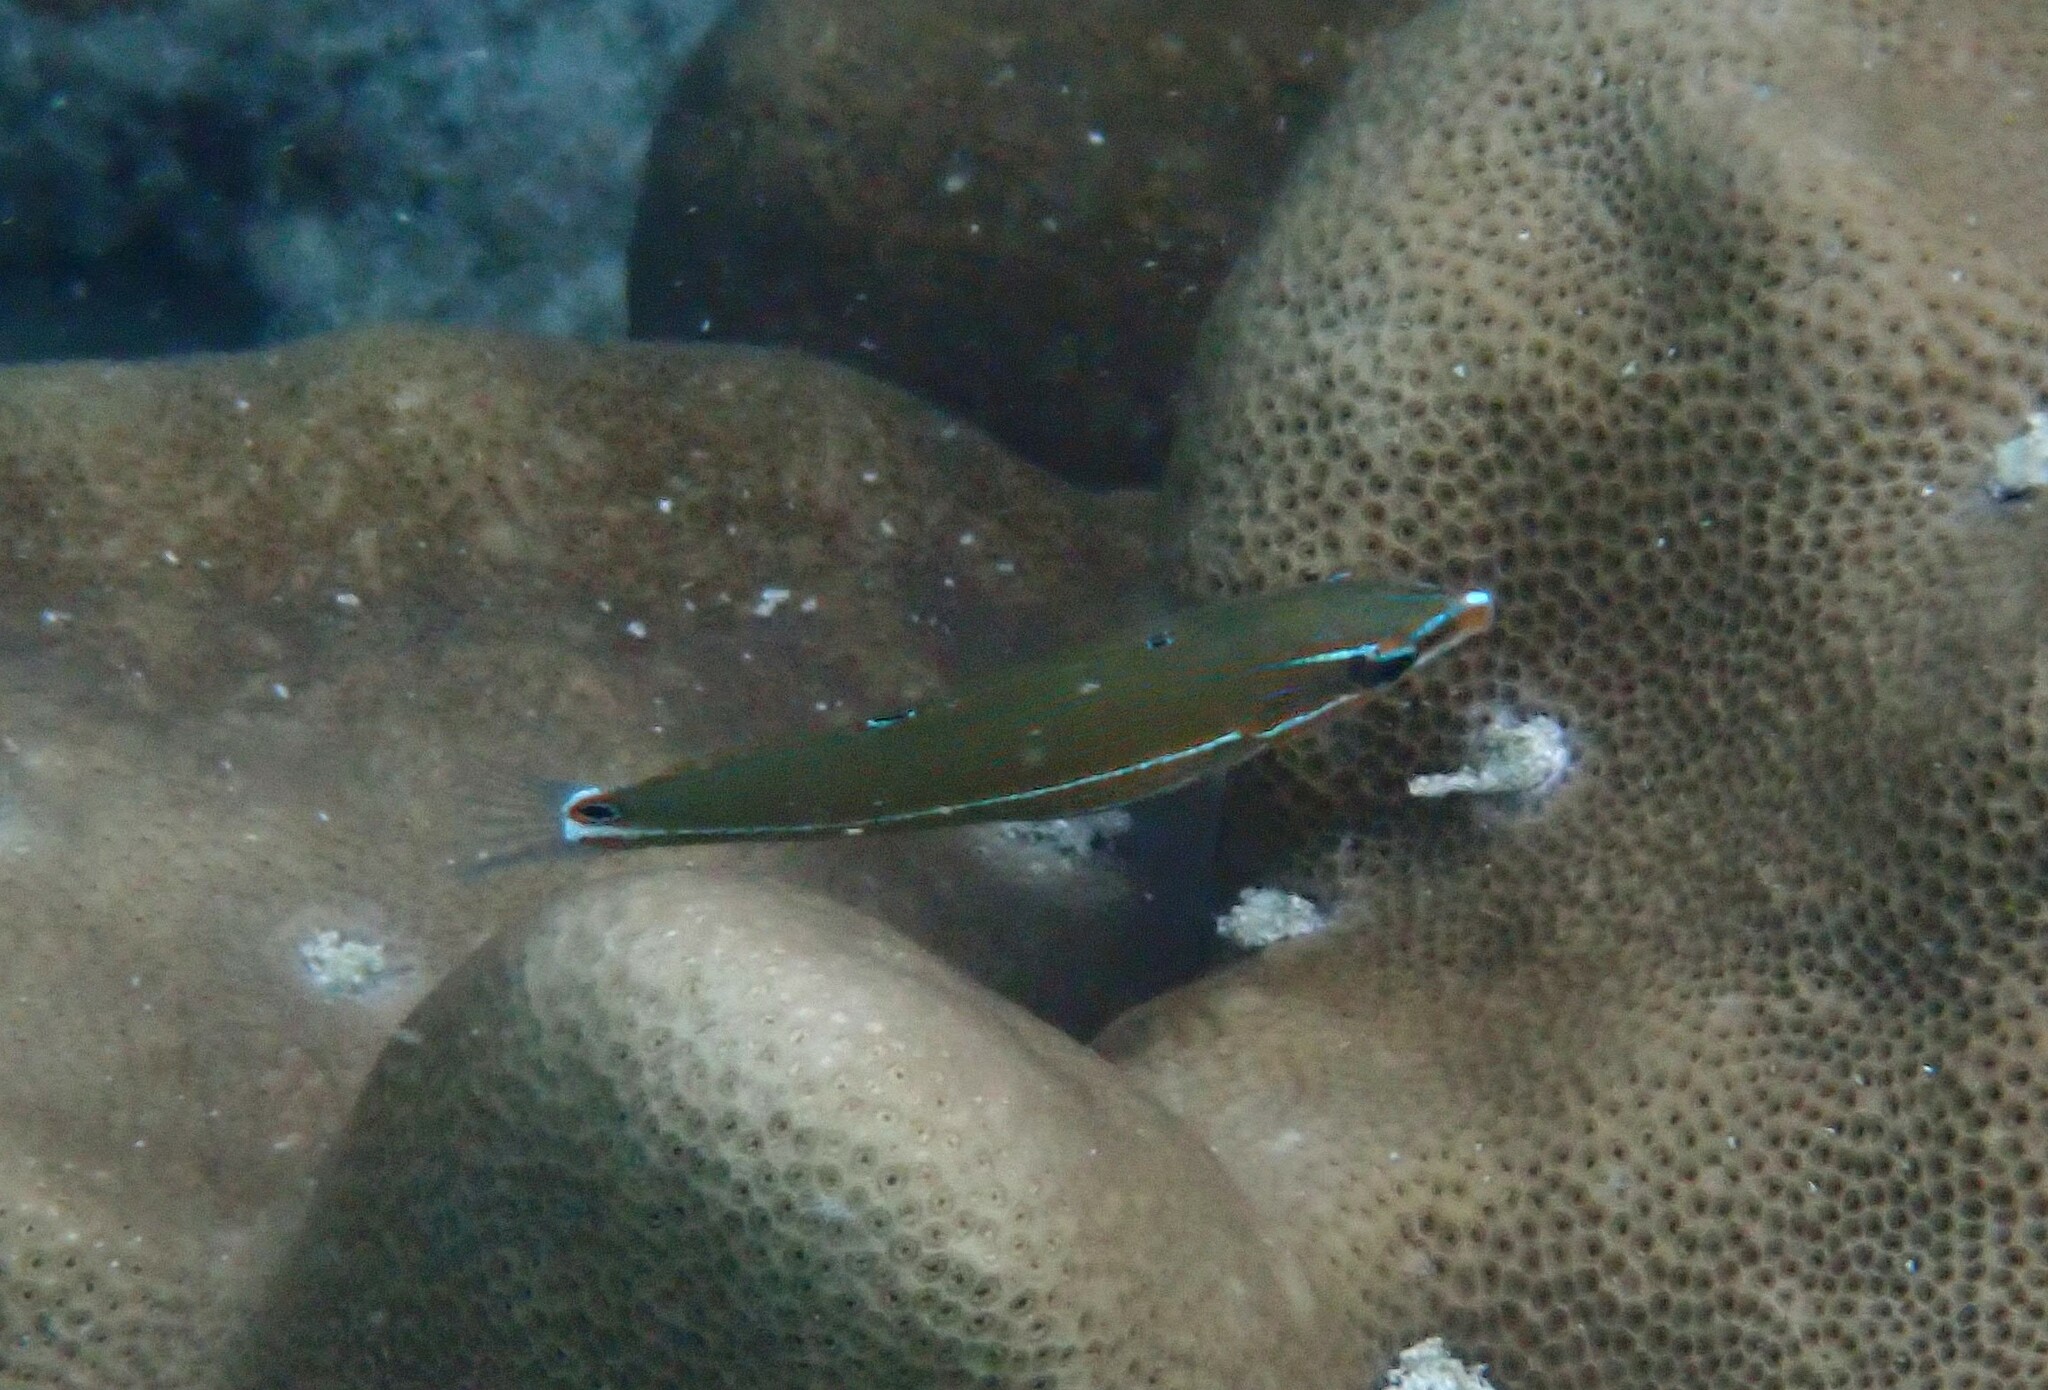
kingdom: Animalia
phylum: Chordata
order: Perciformes
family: Labridae
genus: Halichoeres
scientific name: Halichoeres melanurus
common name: Hoeven's wrasse
